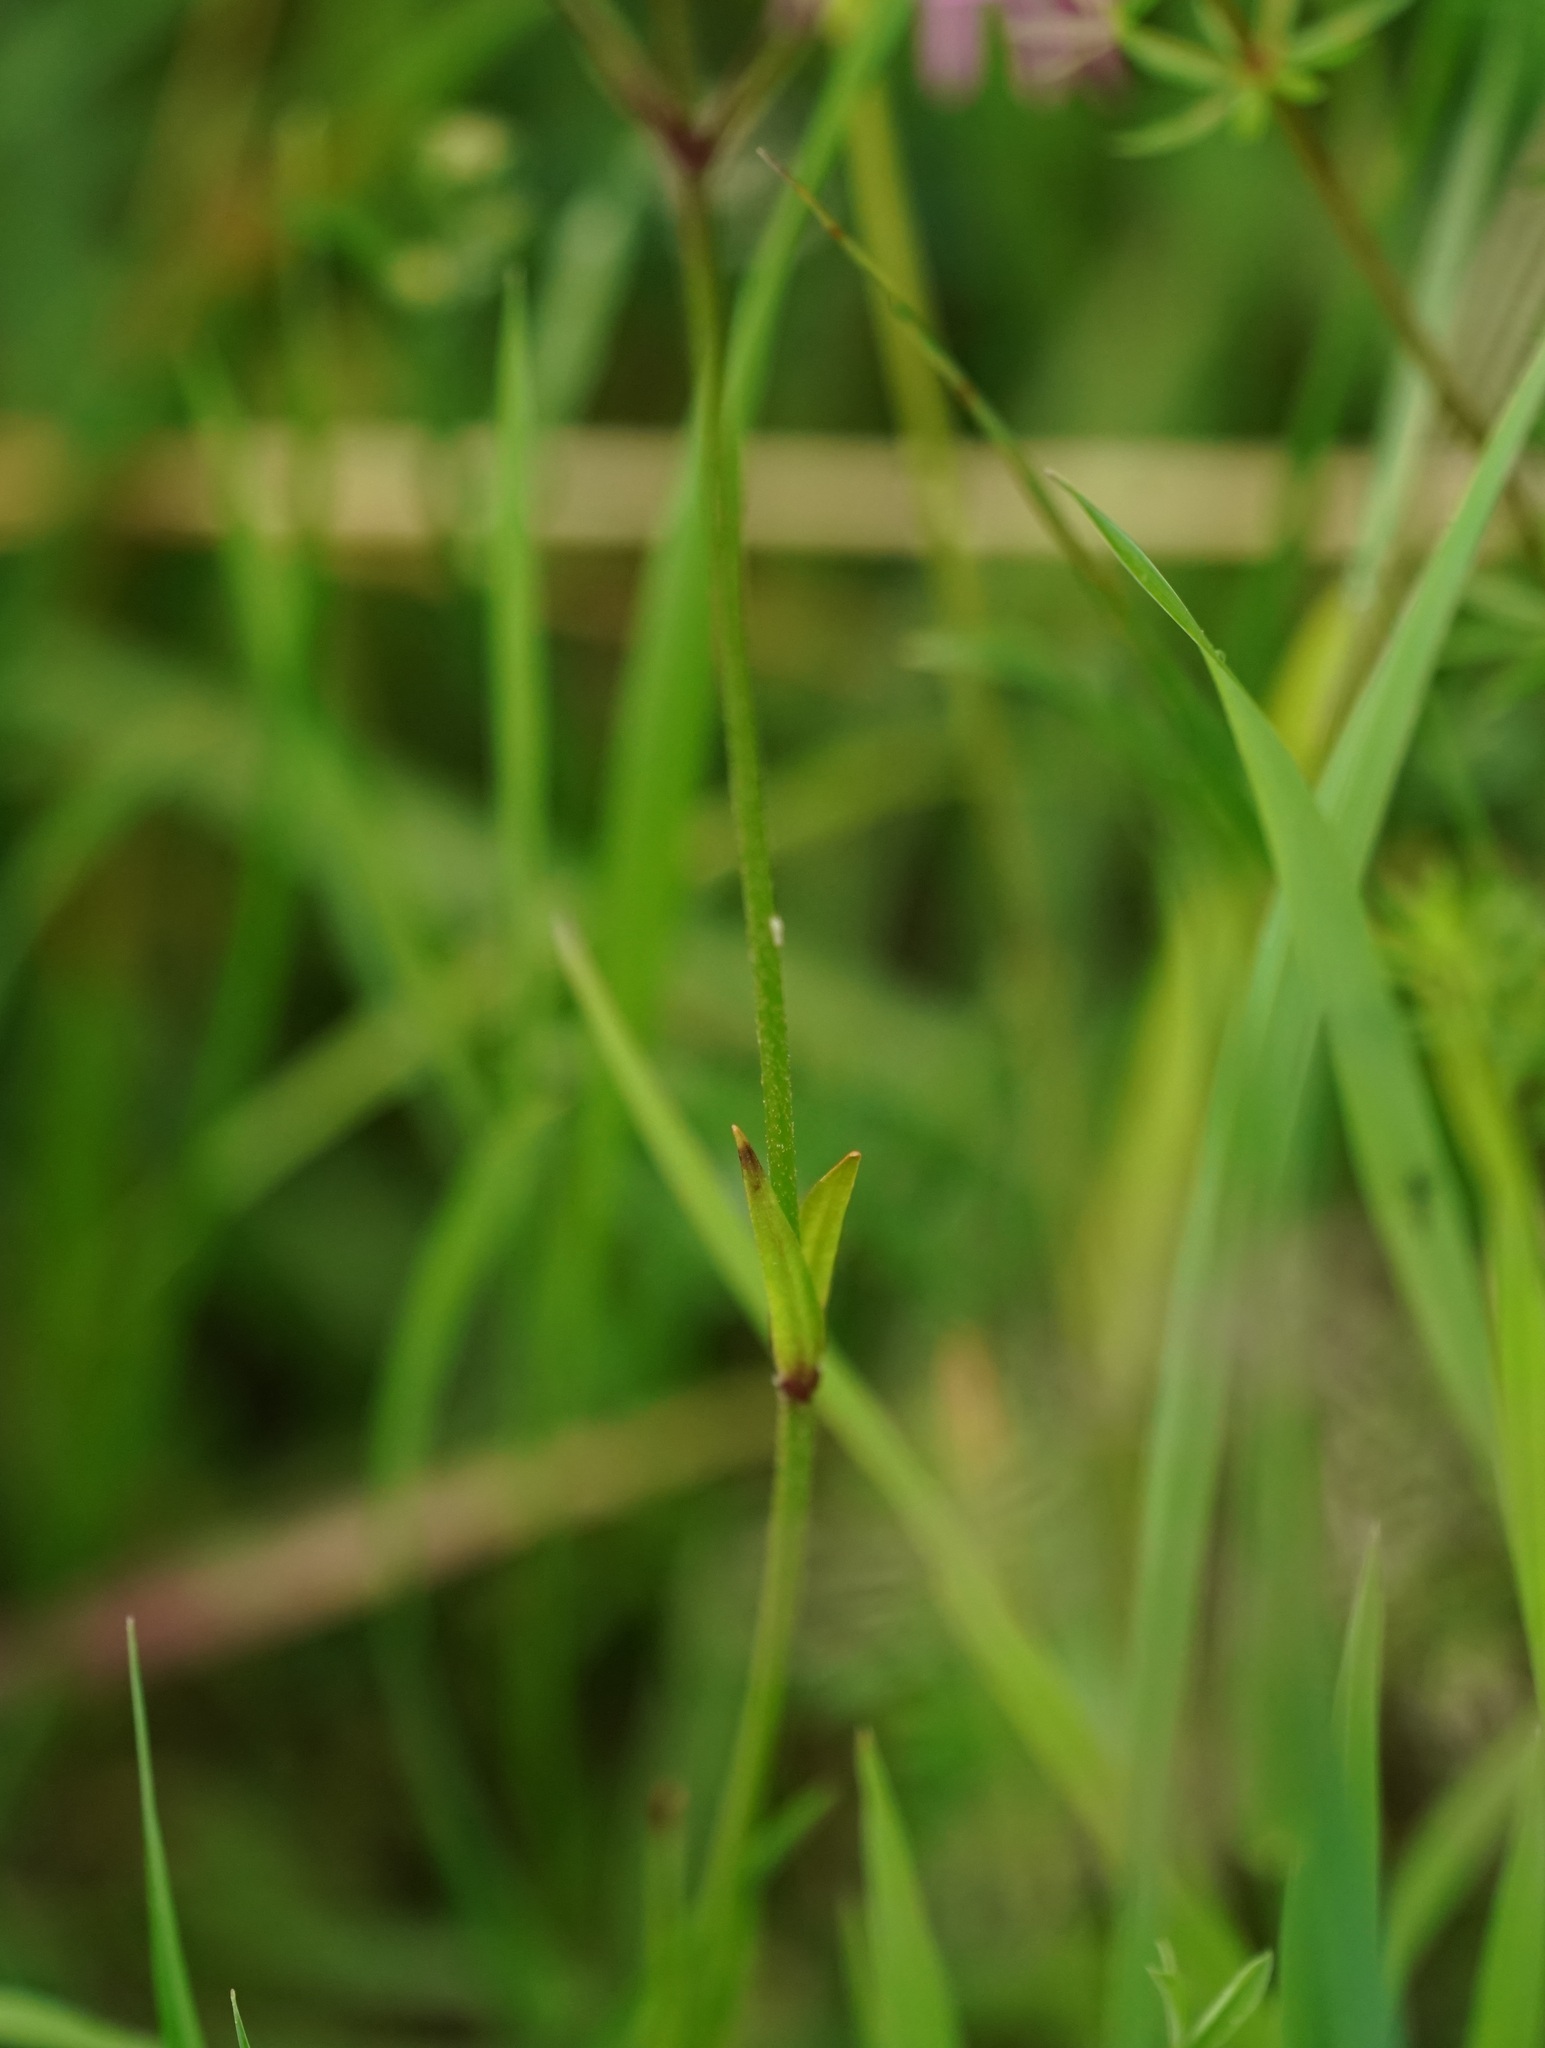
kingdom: Plantae
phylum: Tracheophyta
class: Magnoliopsida
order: Caryophyllales
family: Caryophyllaceae
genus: Silene
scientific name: Silene flos-cuculi
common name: Ragged-robin
